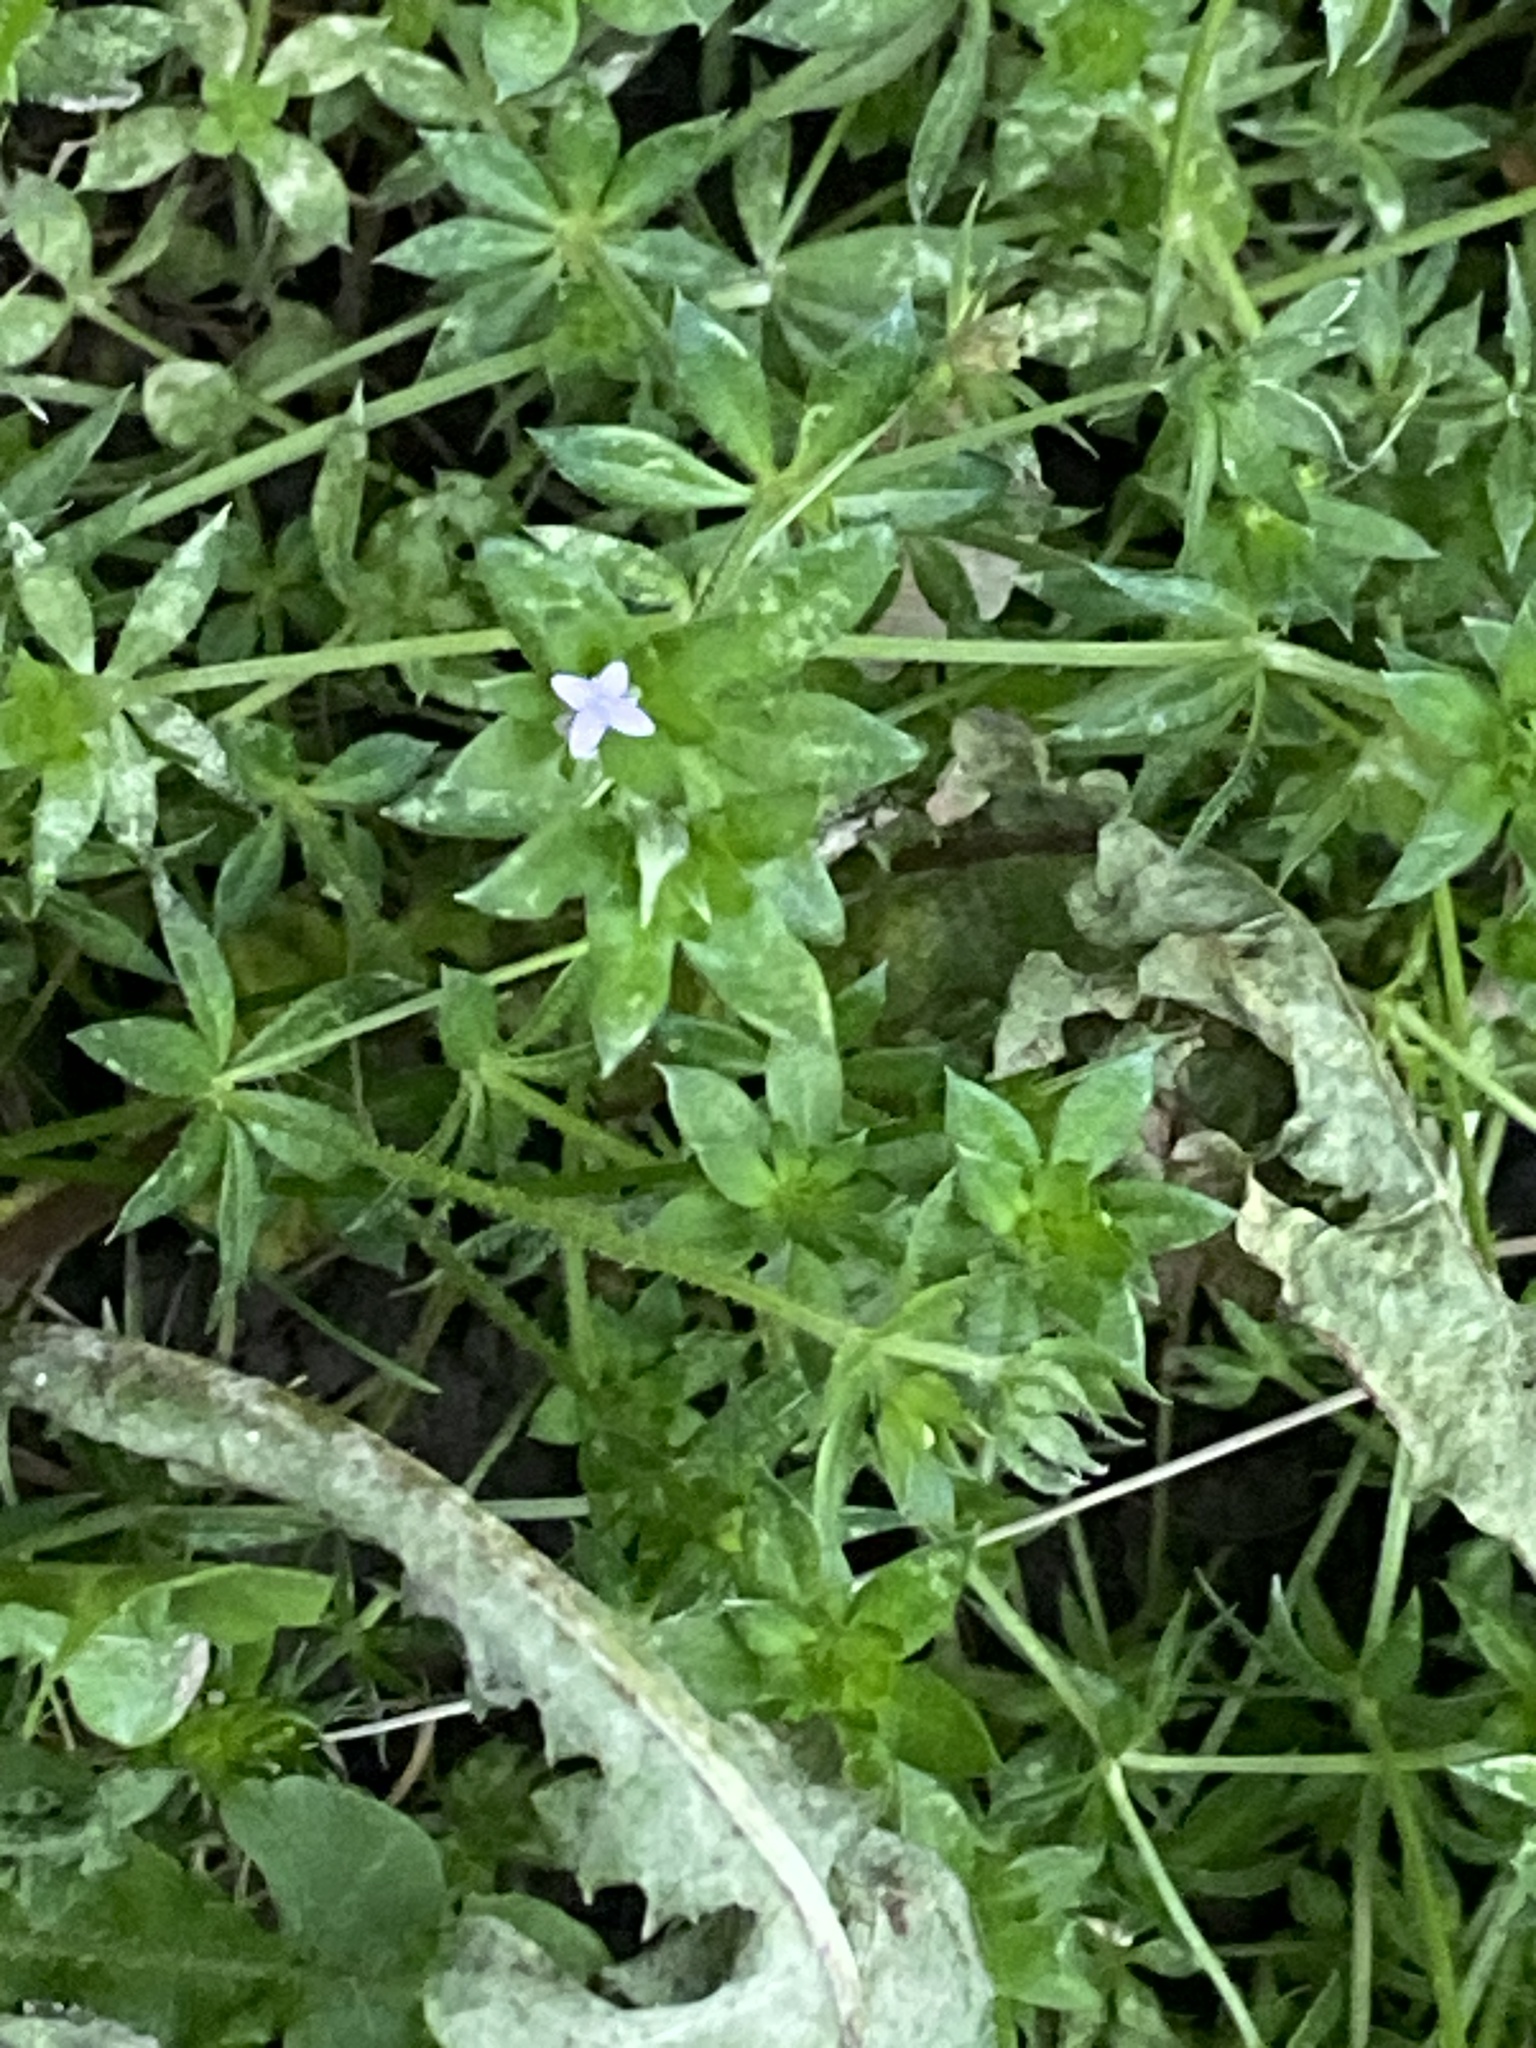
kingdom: Plantae
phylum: Tracheophyta
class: Magnoliopsida
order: Gentianales
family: Rubiaceae
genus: Sherardia
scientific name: Sherardia arvensis
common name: Field madder
